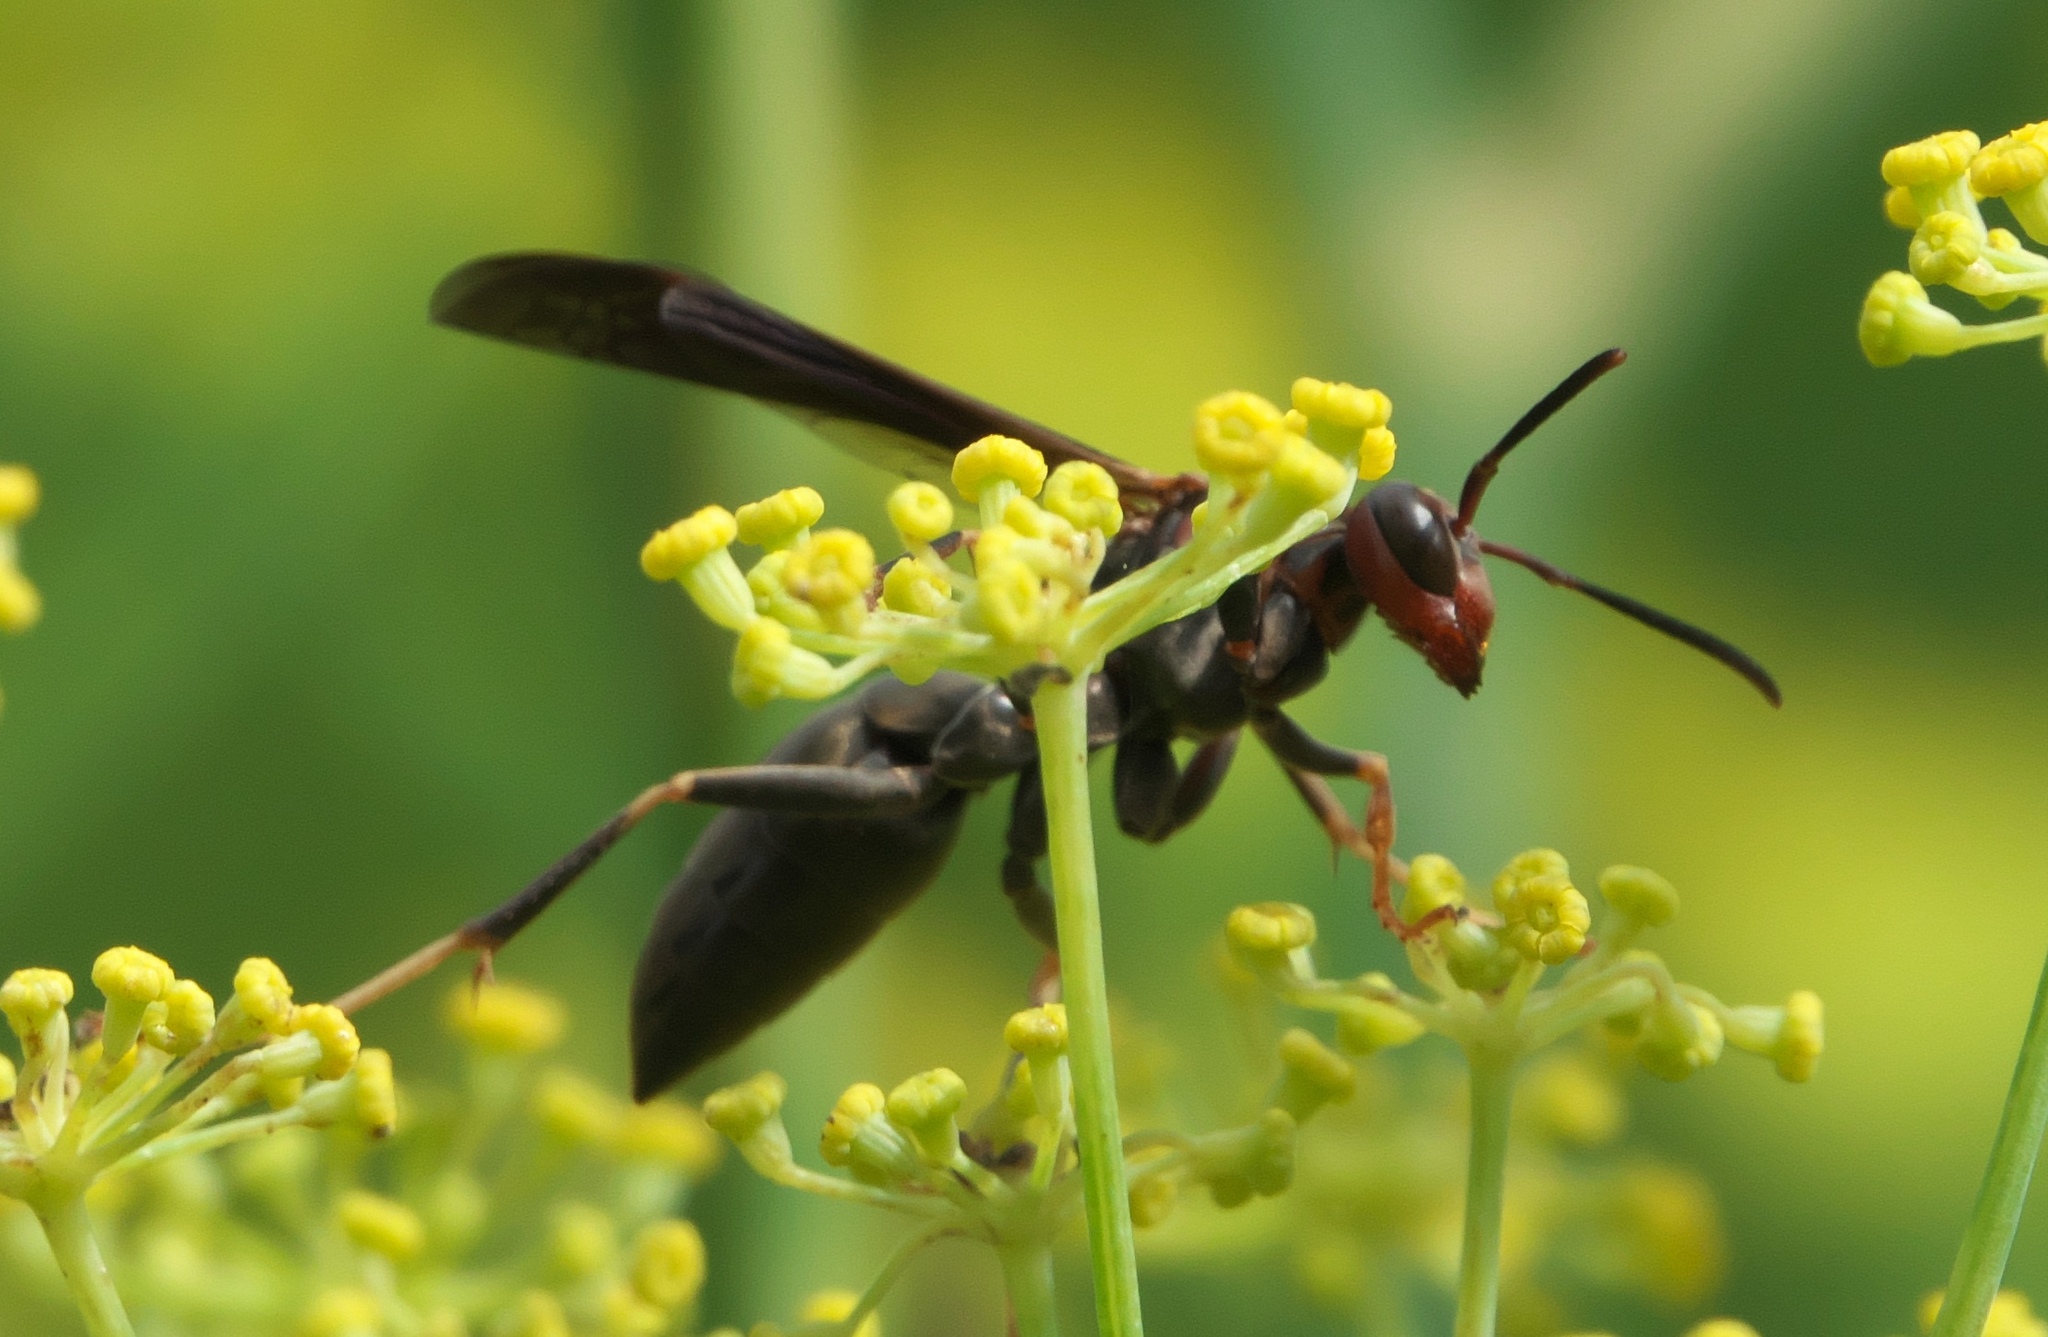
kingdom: Animalia
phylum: Arthropoda
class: Insecta
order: Hymenoptera
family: Eumenidae
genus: Polistes
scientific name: Polistes metricus
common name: Metric paper wasp
